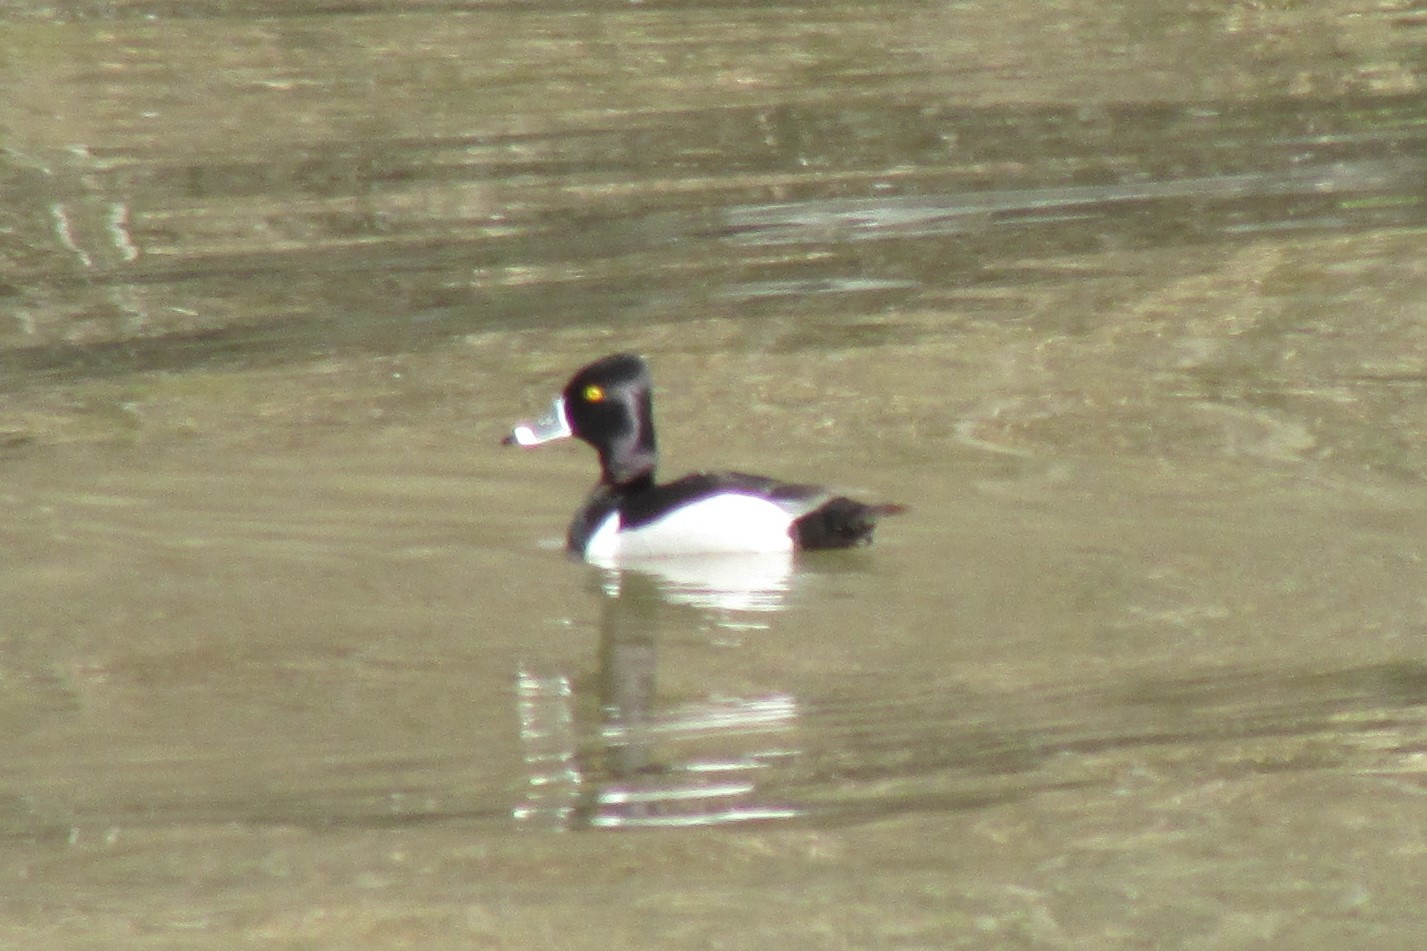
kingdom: Animalia
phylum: Chordata
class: Aves
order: Anseriformes
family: Anatidae
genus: Aythya
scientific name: Aythya collaris
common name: Ring-necked duck
